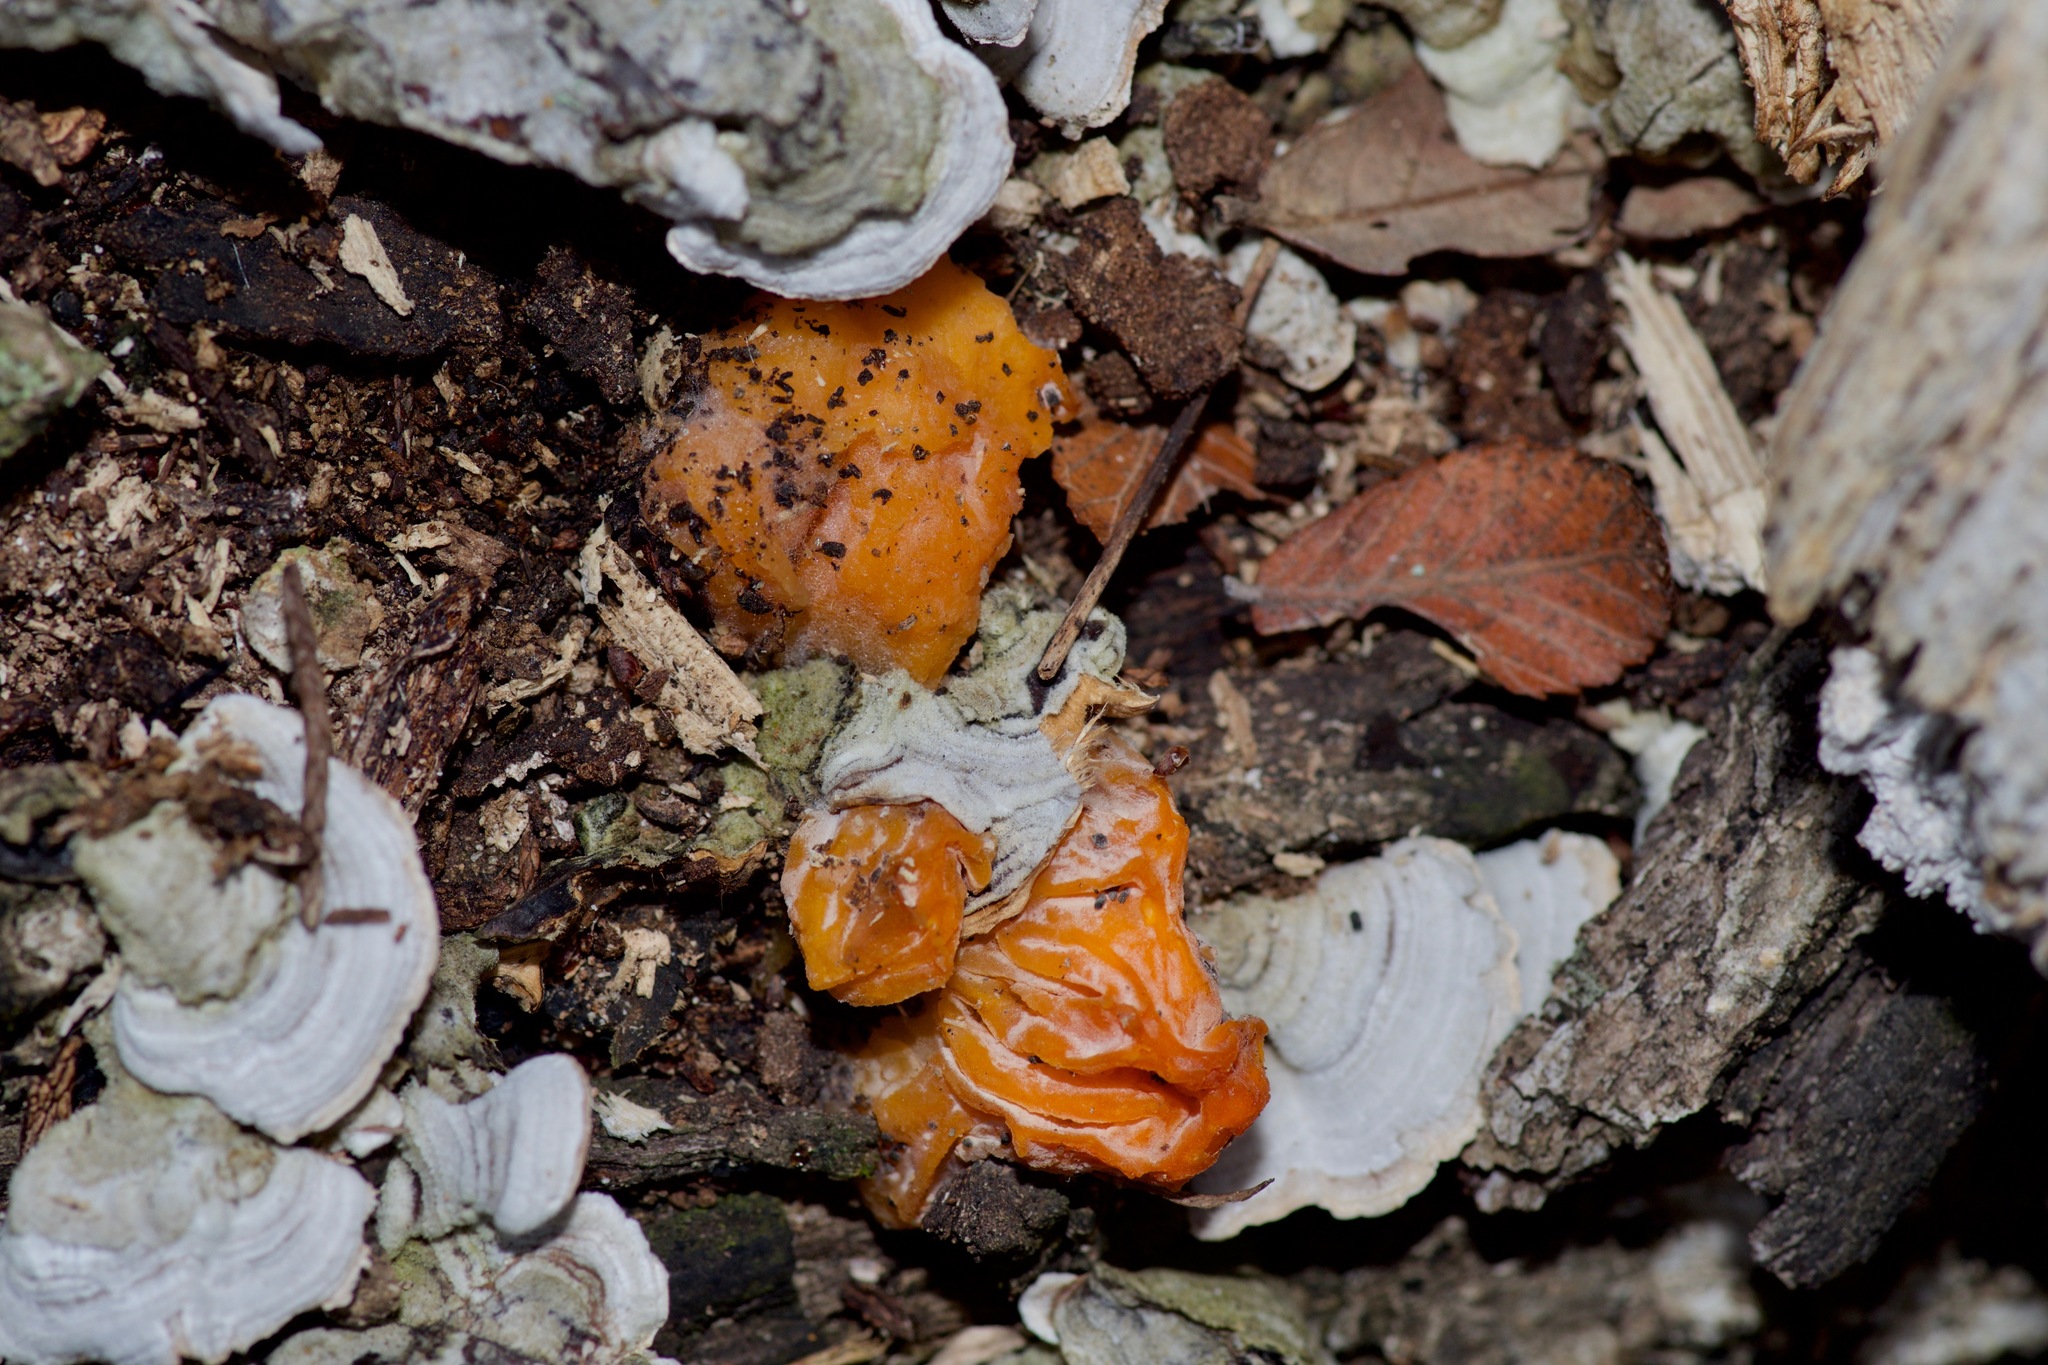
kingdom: Fungi
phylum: Basidiomycota
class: Tremellomycetes
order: Tremellales
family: Naemateliaceae
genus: Naematelia
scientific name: Naematelia aurantia
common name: Golden ear
